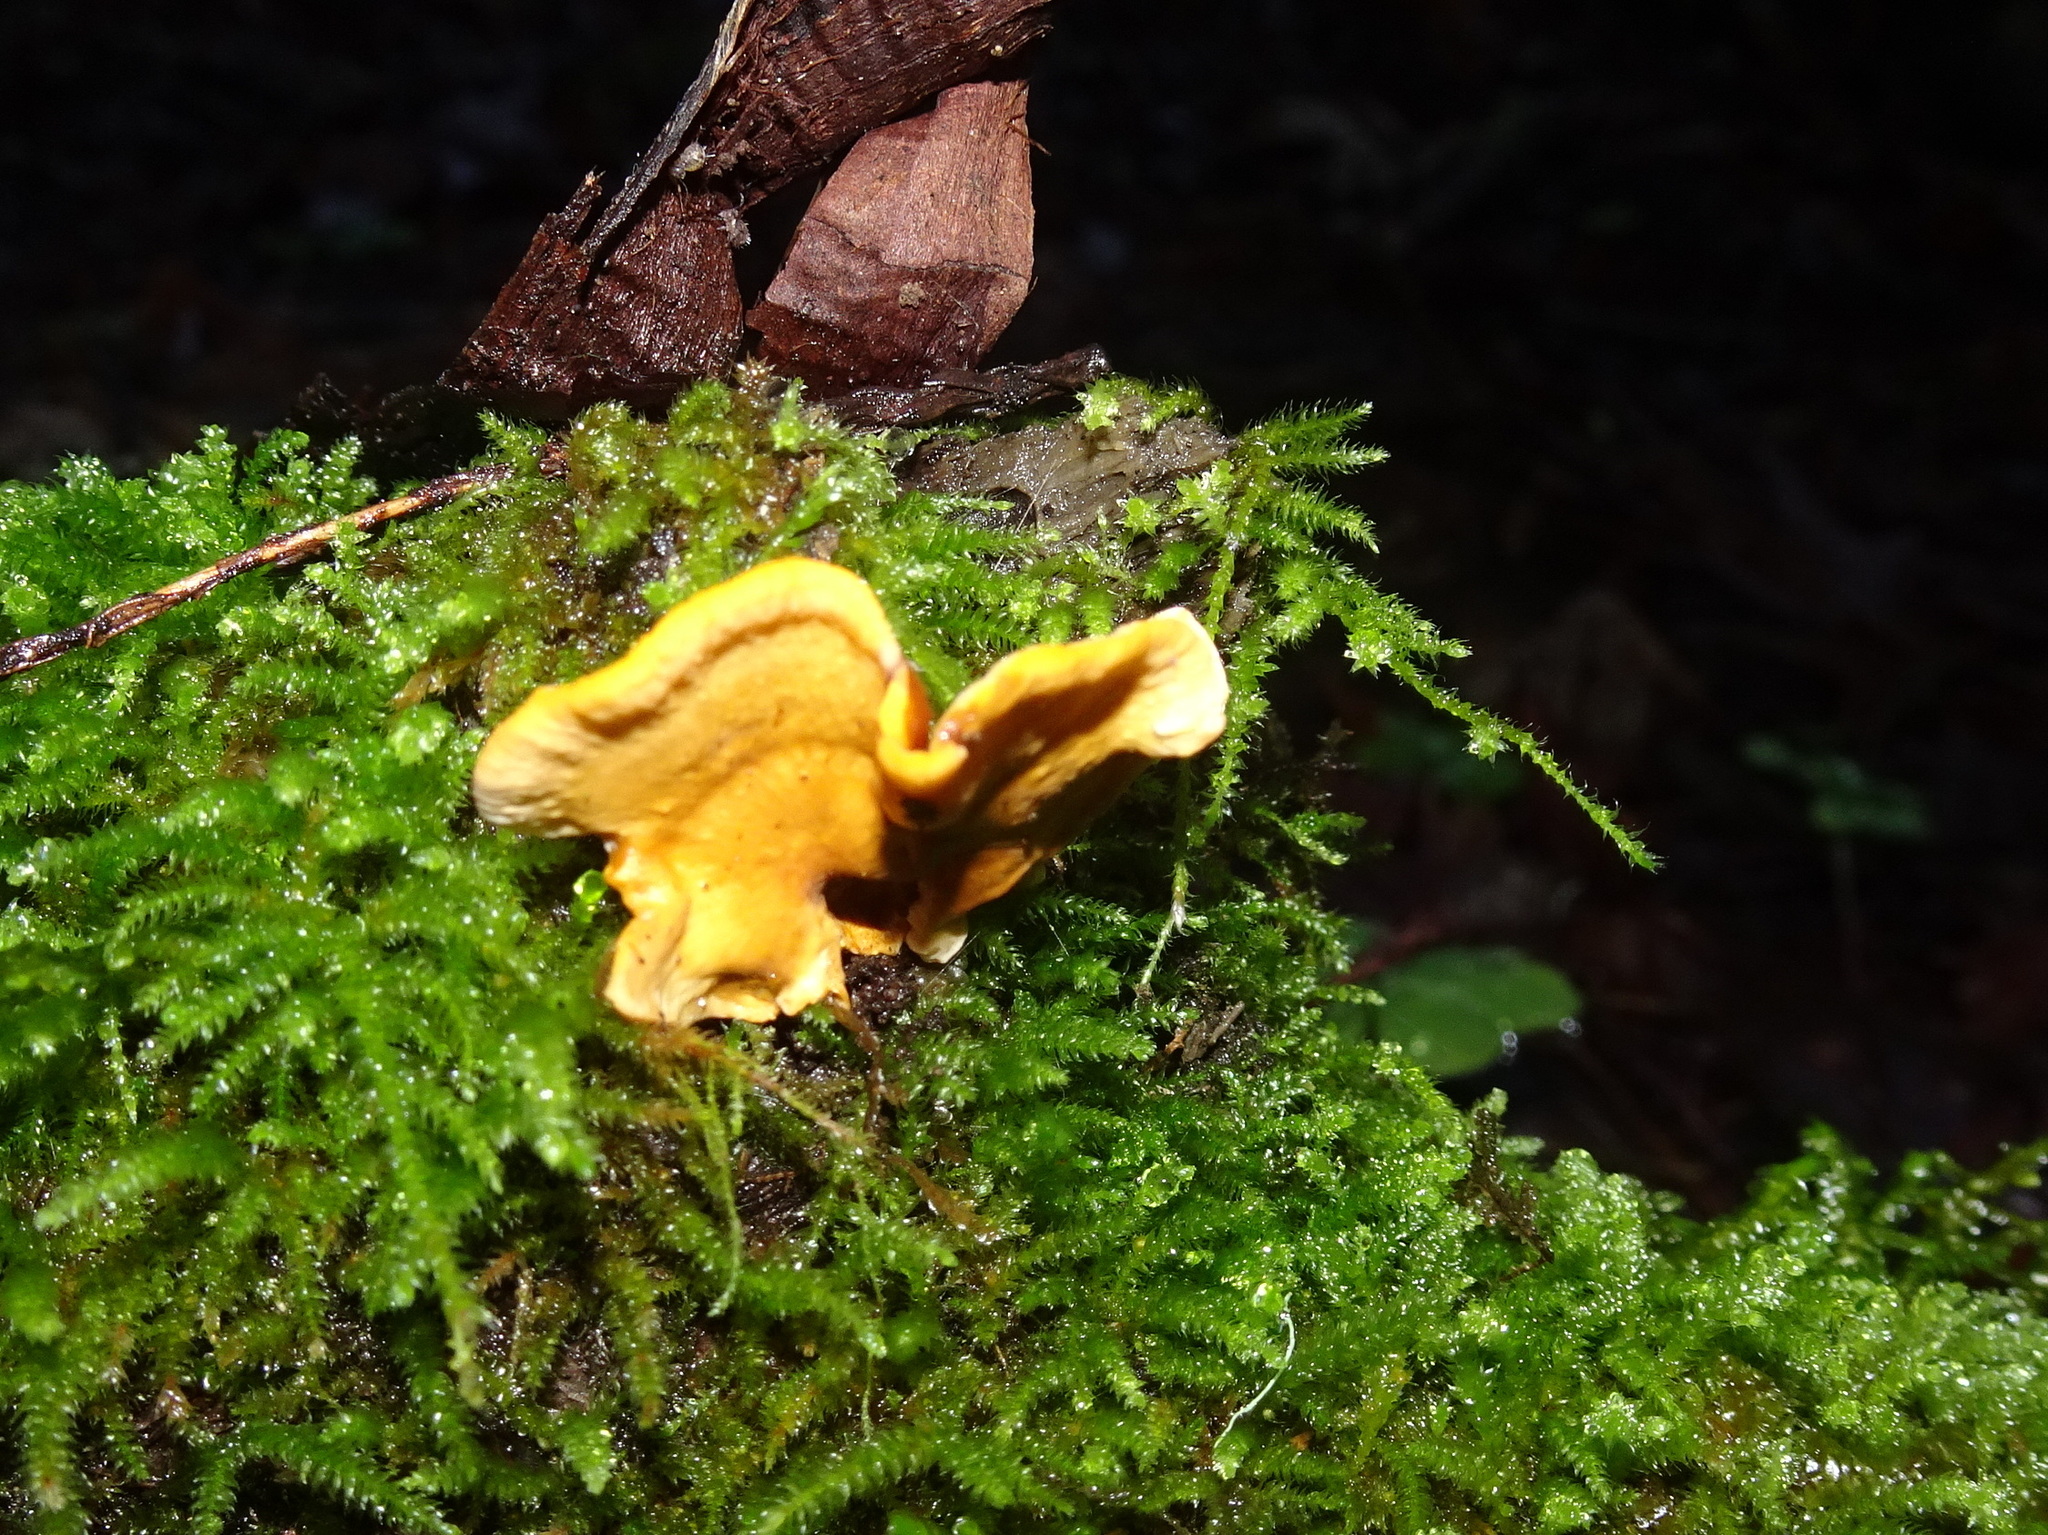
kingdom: Fungi
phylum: Basidiomycota
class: Agaricomycetes
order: Russulales
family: Stereaceae
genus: Stereum
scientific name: Stereum hirsutum
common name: Hairy curtain crust
